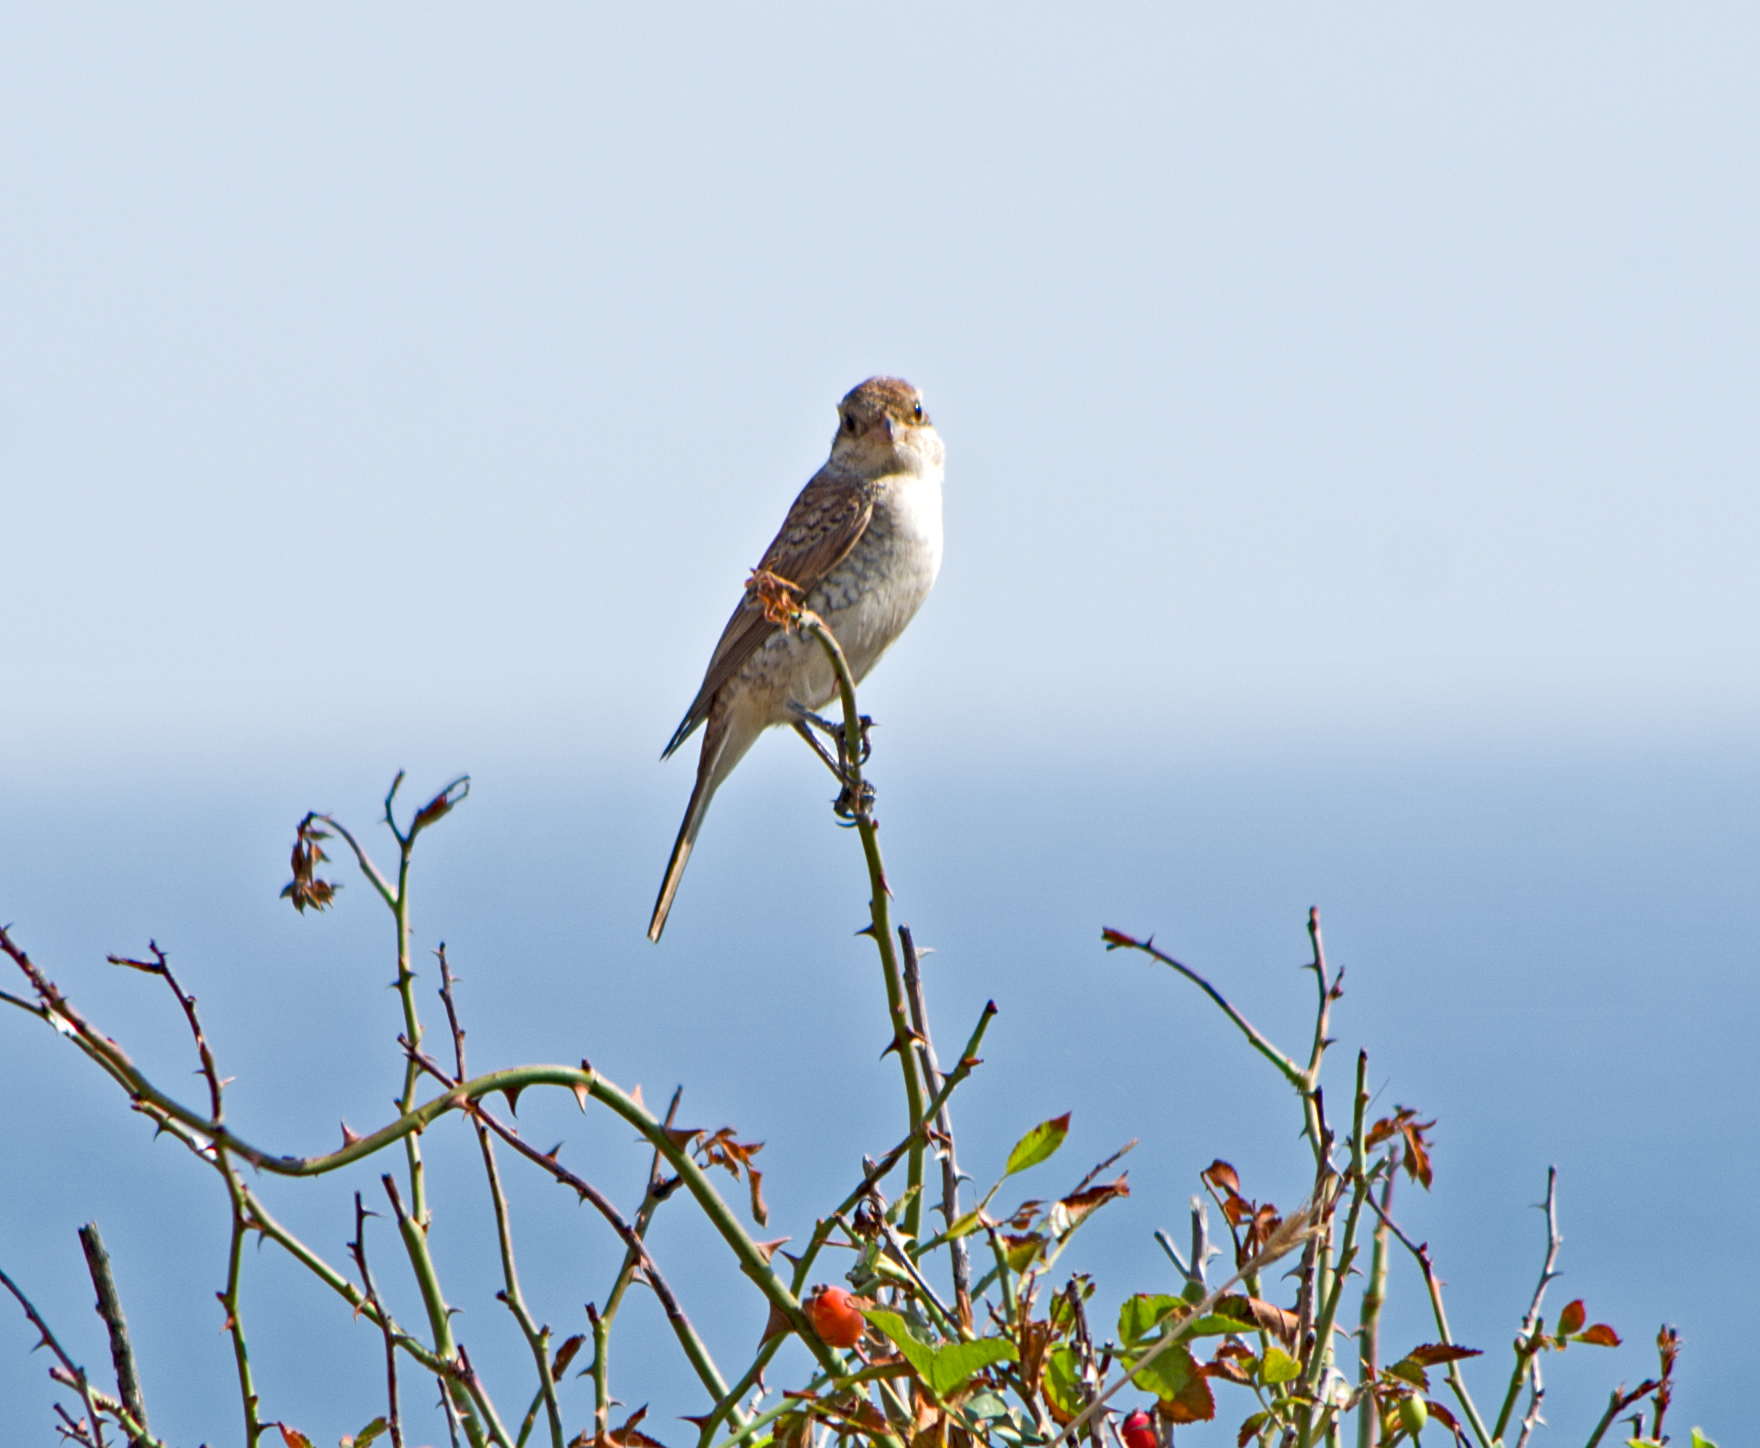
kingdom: Animalia
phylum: Chordata
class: Aves
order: Passeriformes
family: Laniidae
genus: Lanius
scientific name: Lanius collurio
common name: Red-backed shrike
